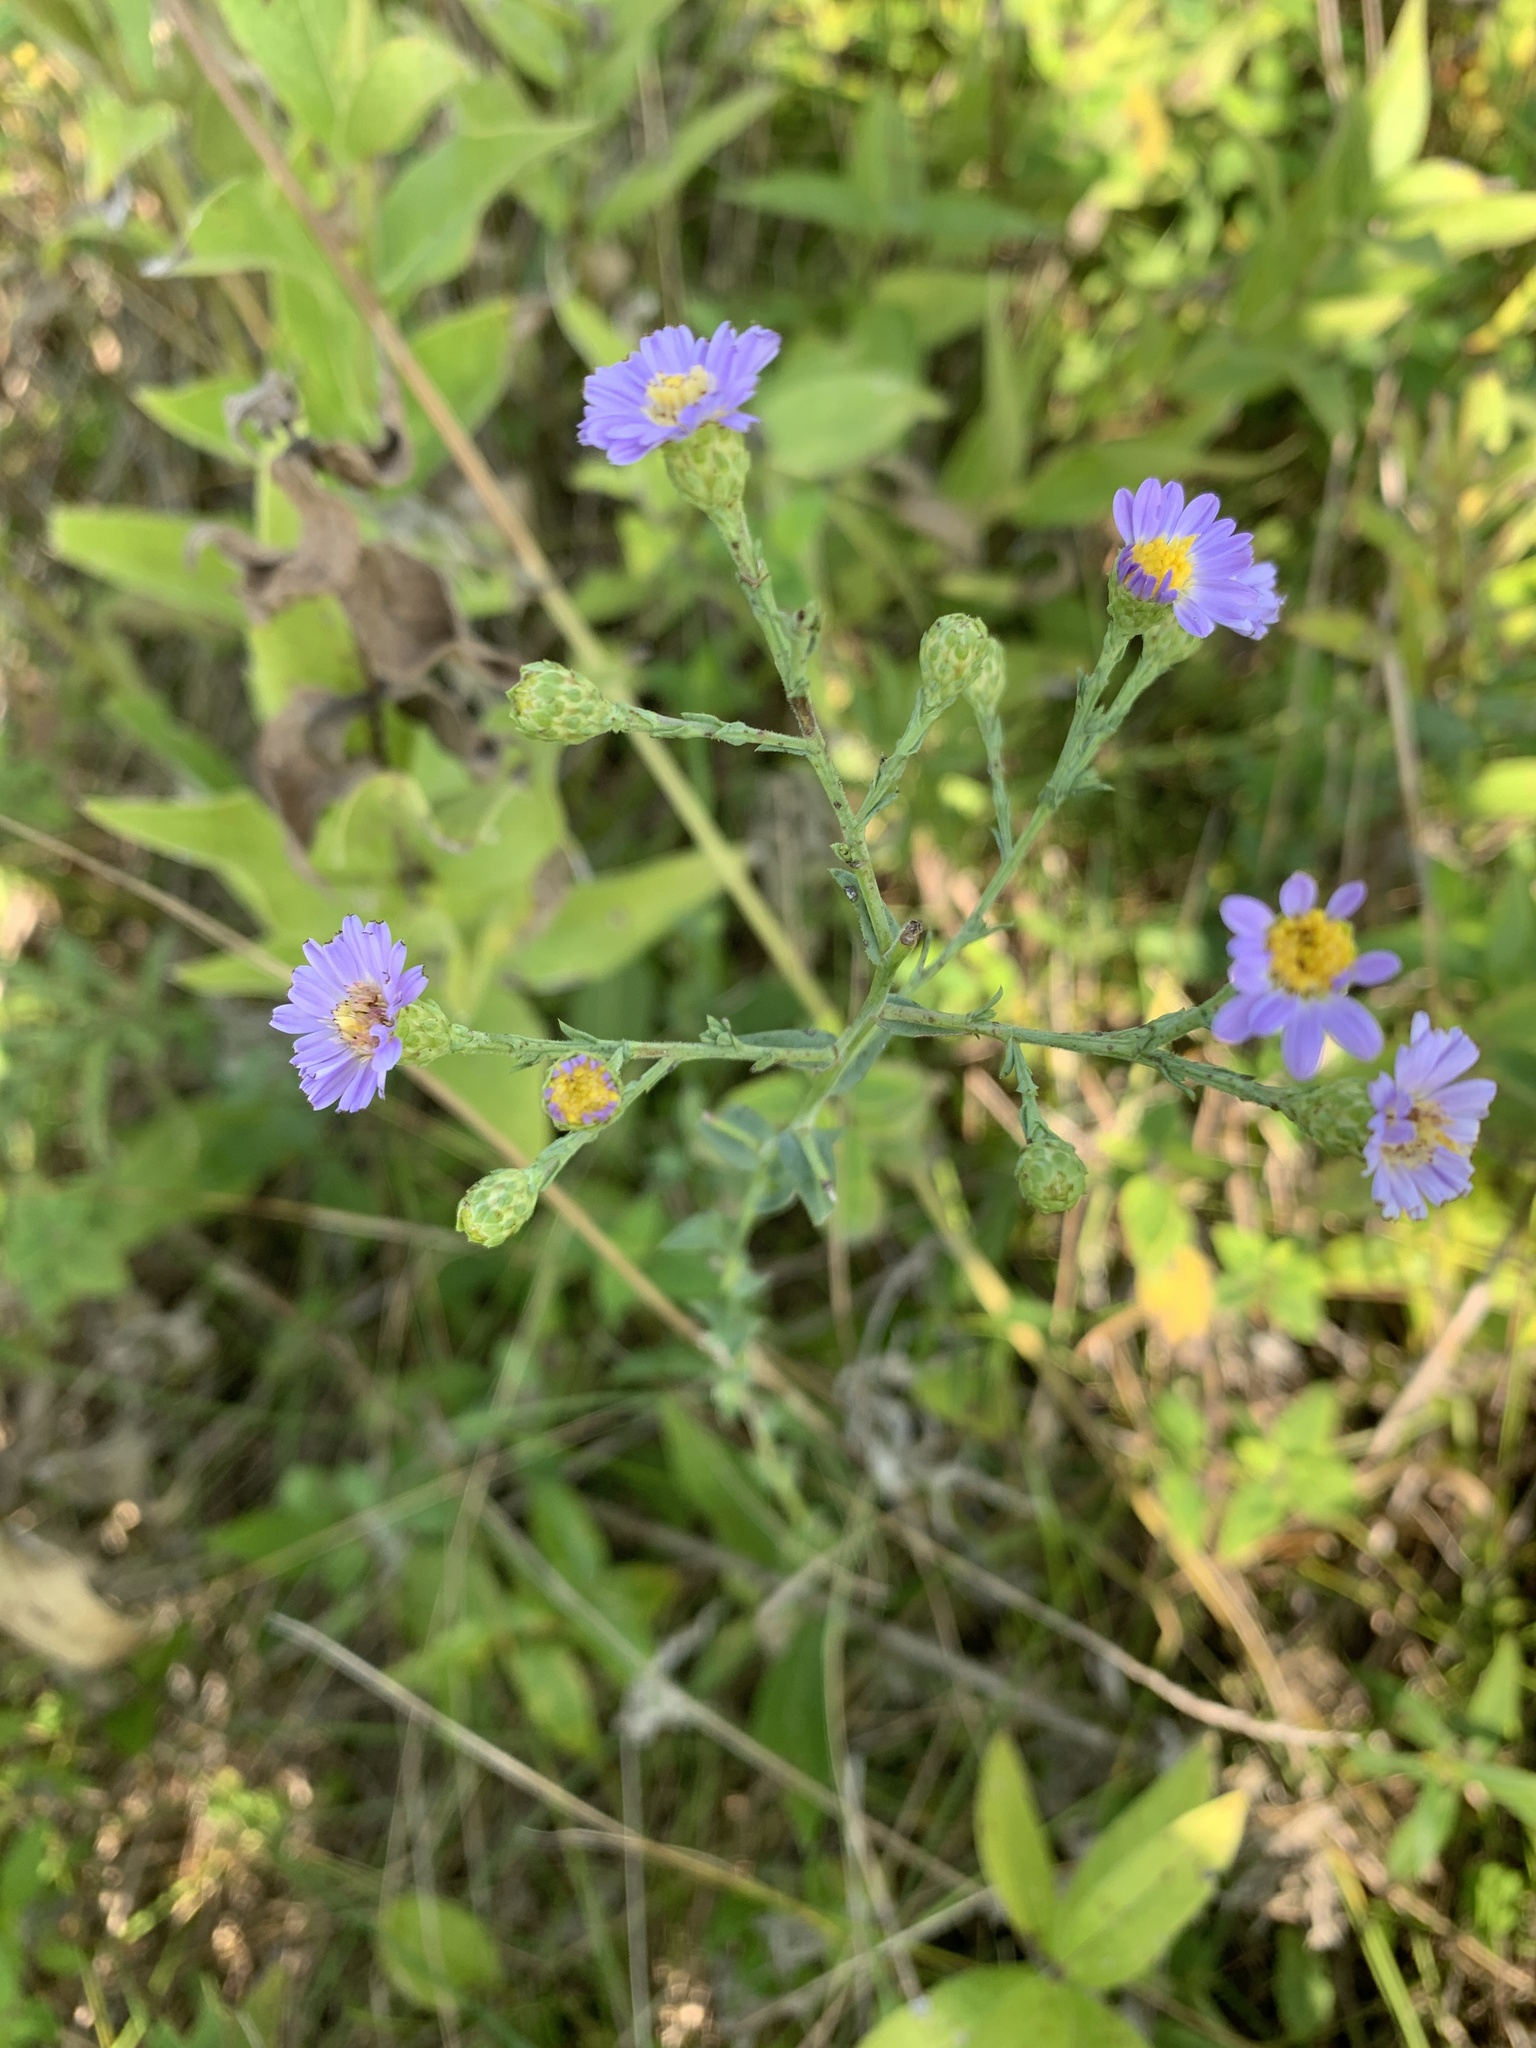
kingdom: Plantae
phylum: Tracheophyta
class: Magnoliopsida
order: Asterales
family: Asteraceae
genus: Symphyotrichum
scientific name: Symphyotrichum laeve
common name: Glaucous aster
